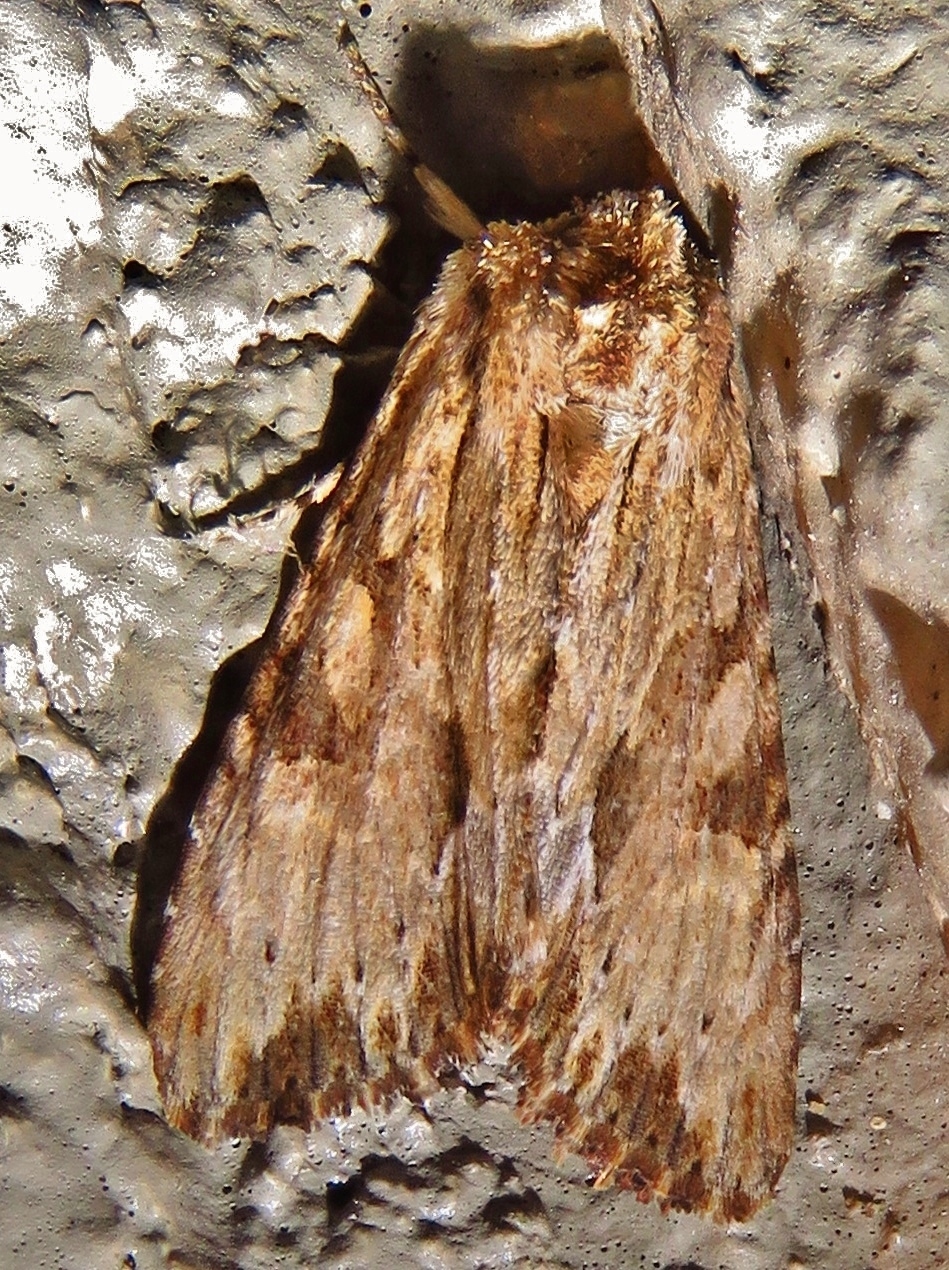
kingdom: Animalia
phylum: Arthropoda
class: Insecta
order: Lepidoptera
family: Noctuidae
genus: Achatia
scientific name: Achatia mucens
